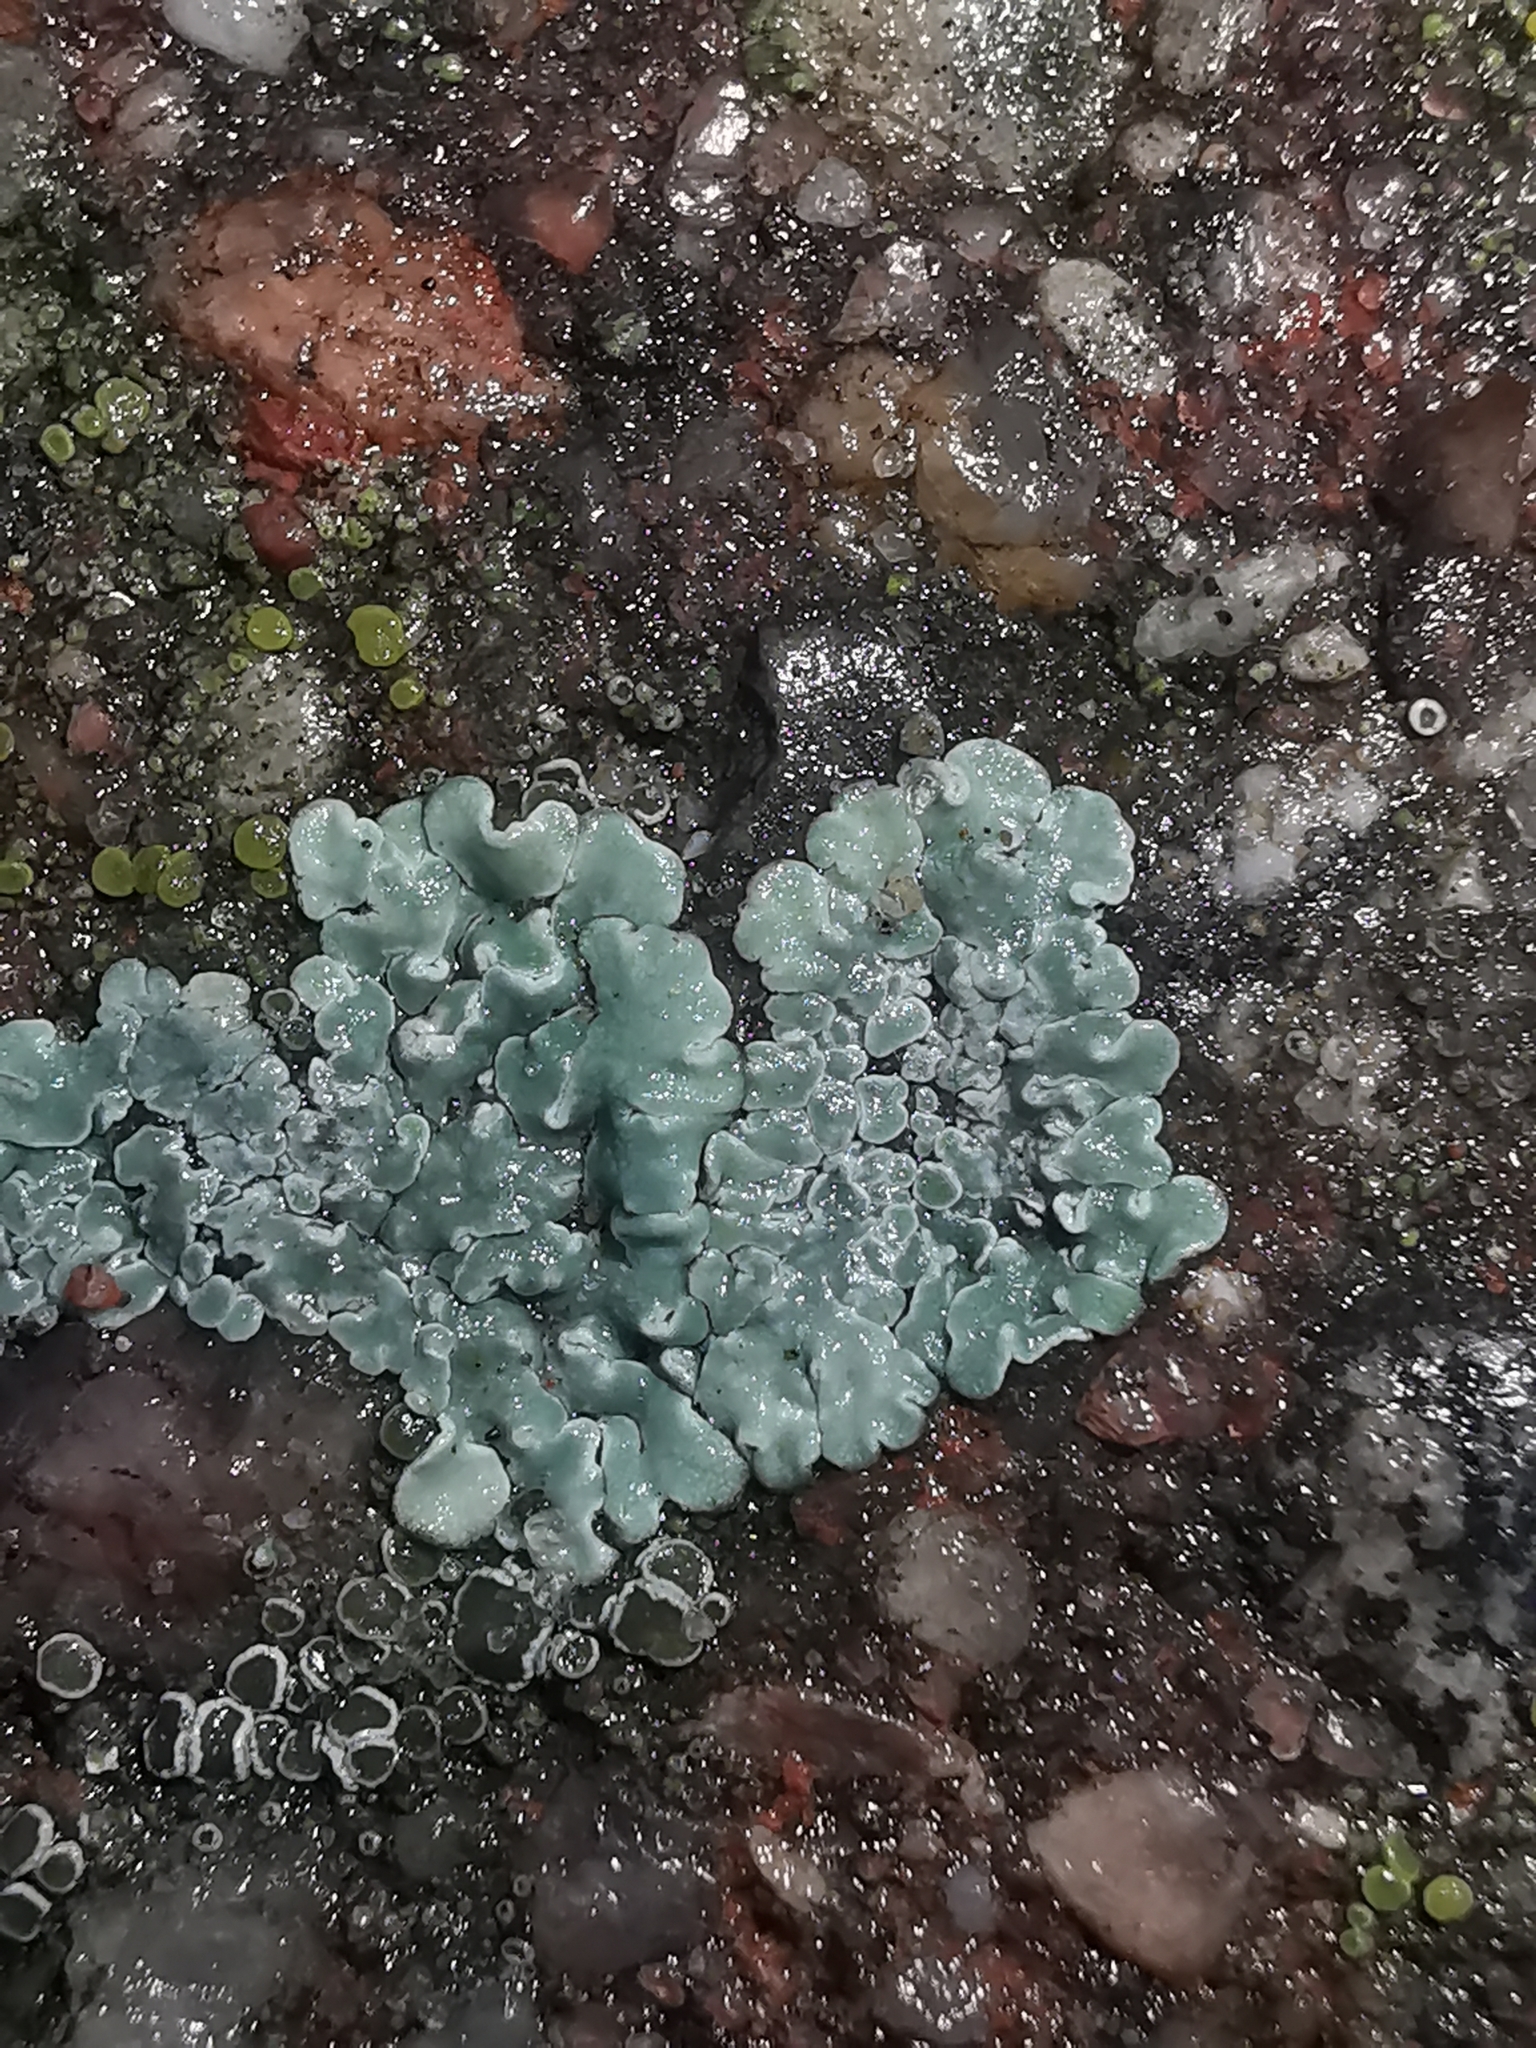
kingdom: Fungi
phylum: Ascomycota
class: Lecanoromycetes
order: Lecanorales
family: Lecanoraceae
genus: Protoparmeliopsis
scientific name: Protoparmeliopsis muralis
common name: Stonewall rim lichen
